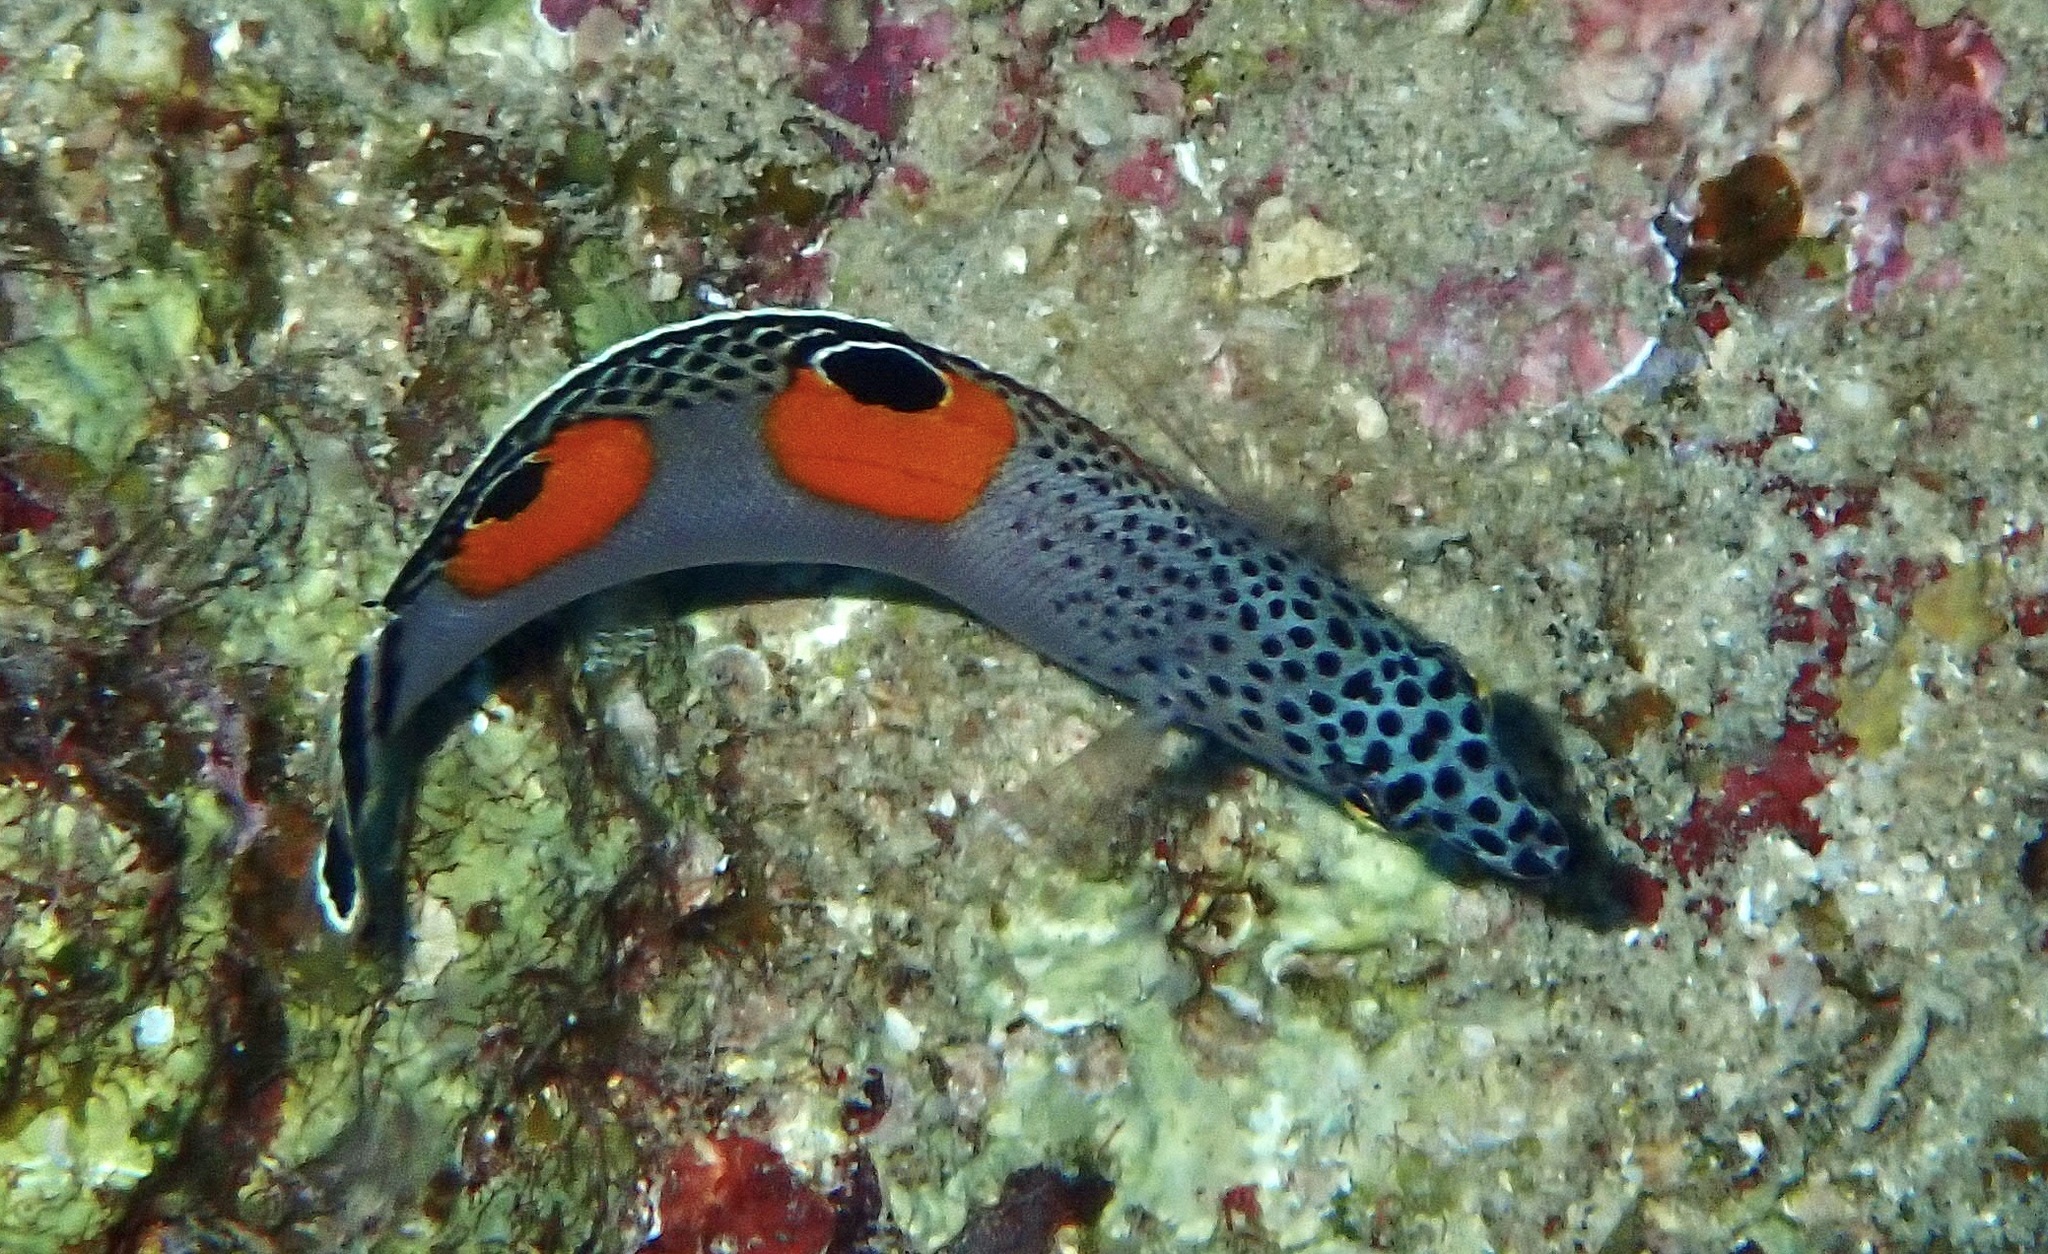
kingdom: Animalia
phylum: Chordata
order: Perciformes
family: Labridae
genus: Coris
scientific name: Coris aygula
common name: Clown coris
